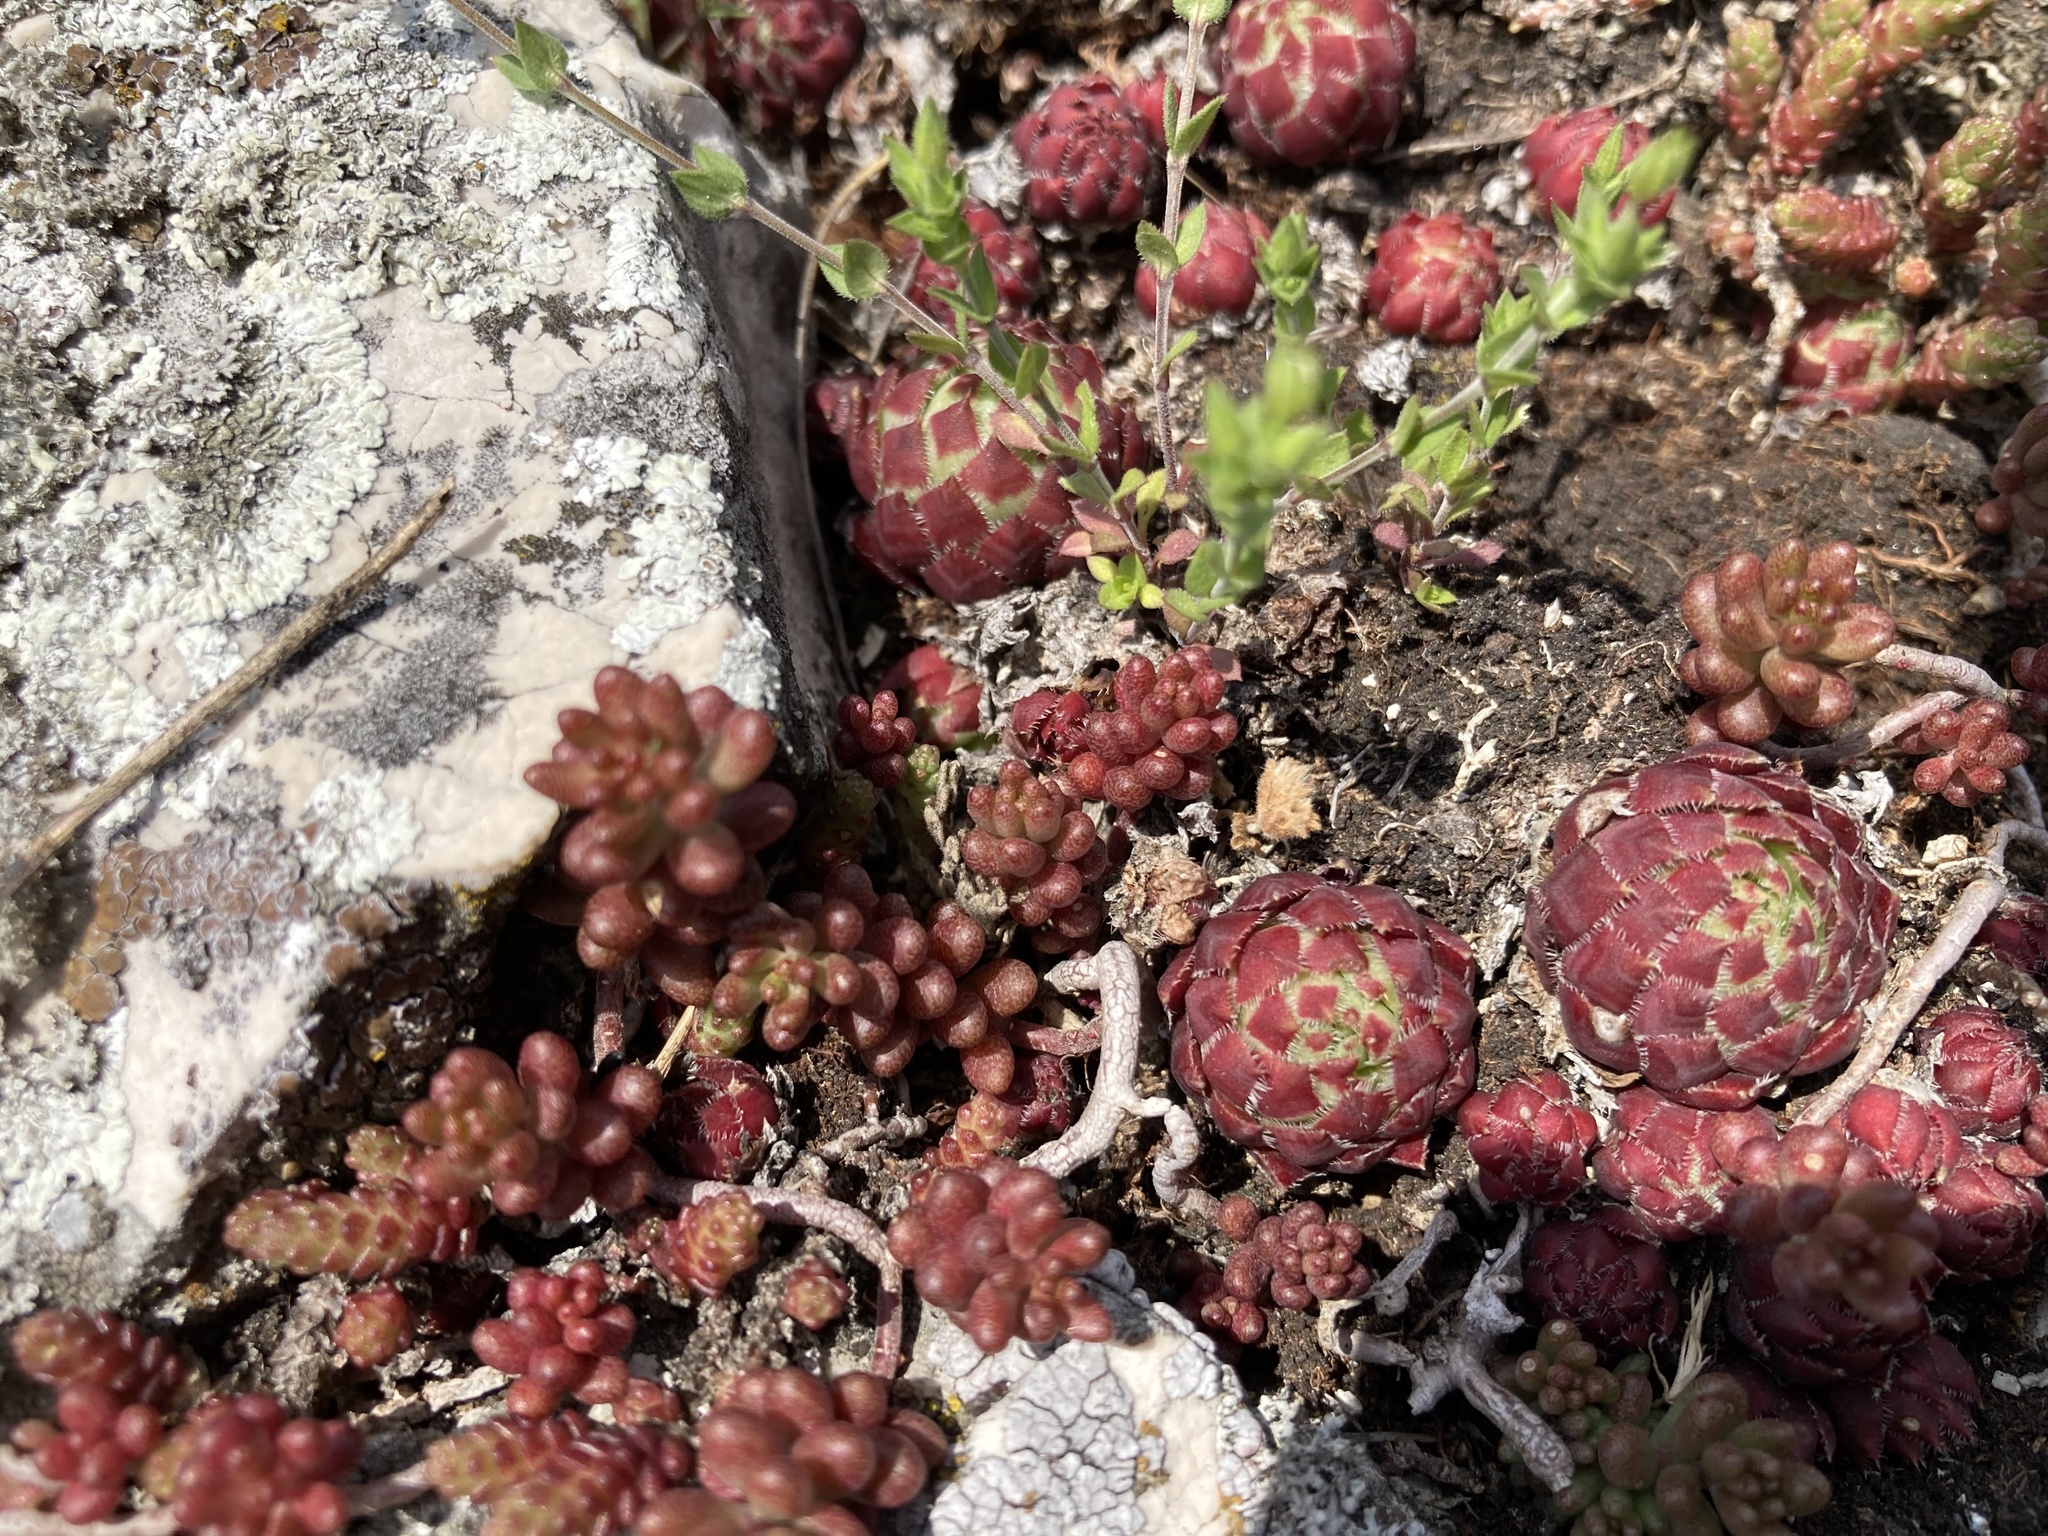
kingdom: Plantae
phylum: Tracheophyta
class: Magnoliopsida
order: Saxifragales
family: Crassulaceae
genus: Sempervivum
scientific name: Sempervivum globiferum
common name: Rolling hen-and-chicks
